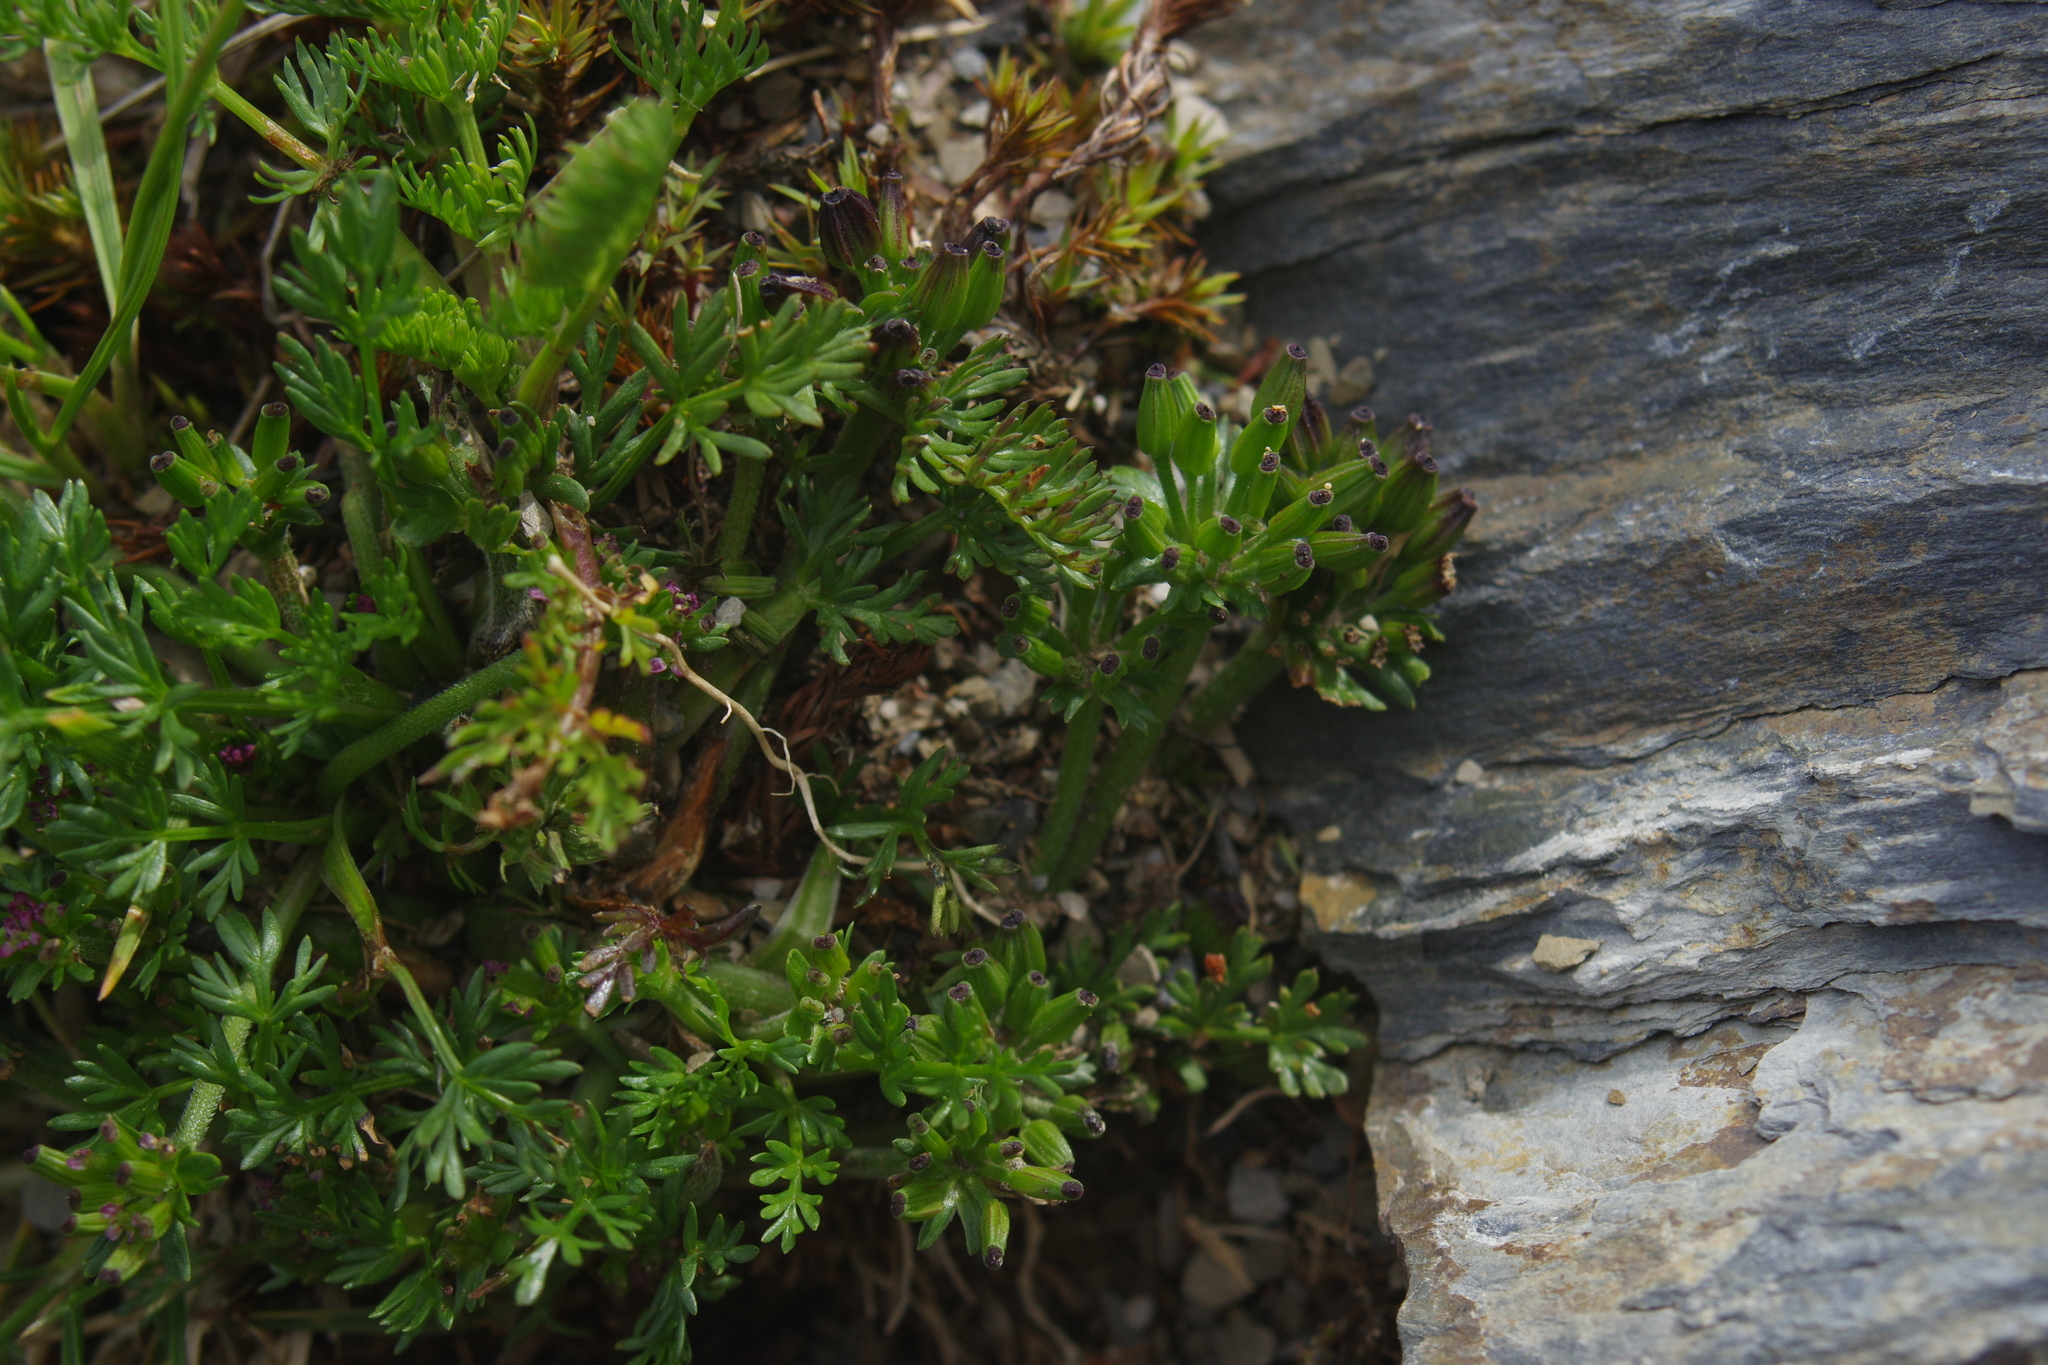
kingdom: Plantae
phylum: Tracheophyta
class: Magnoliopsida
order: Apiales
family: Apiaceae
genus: Chaerophyllum
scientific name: Chaerophyllum taiwanianum
